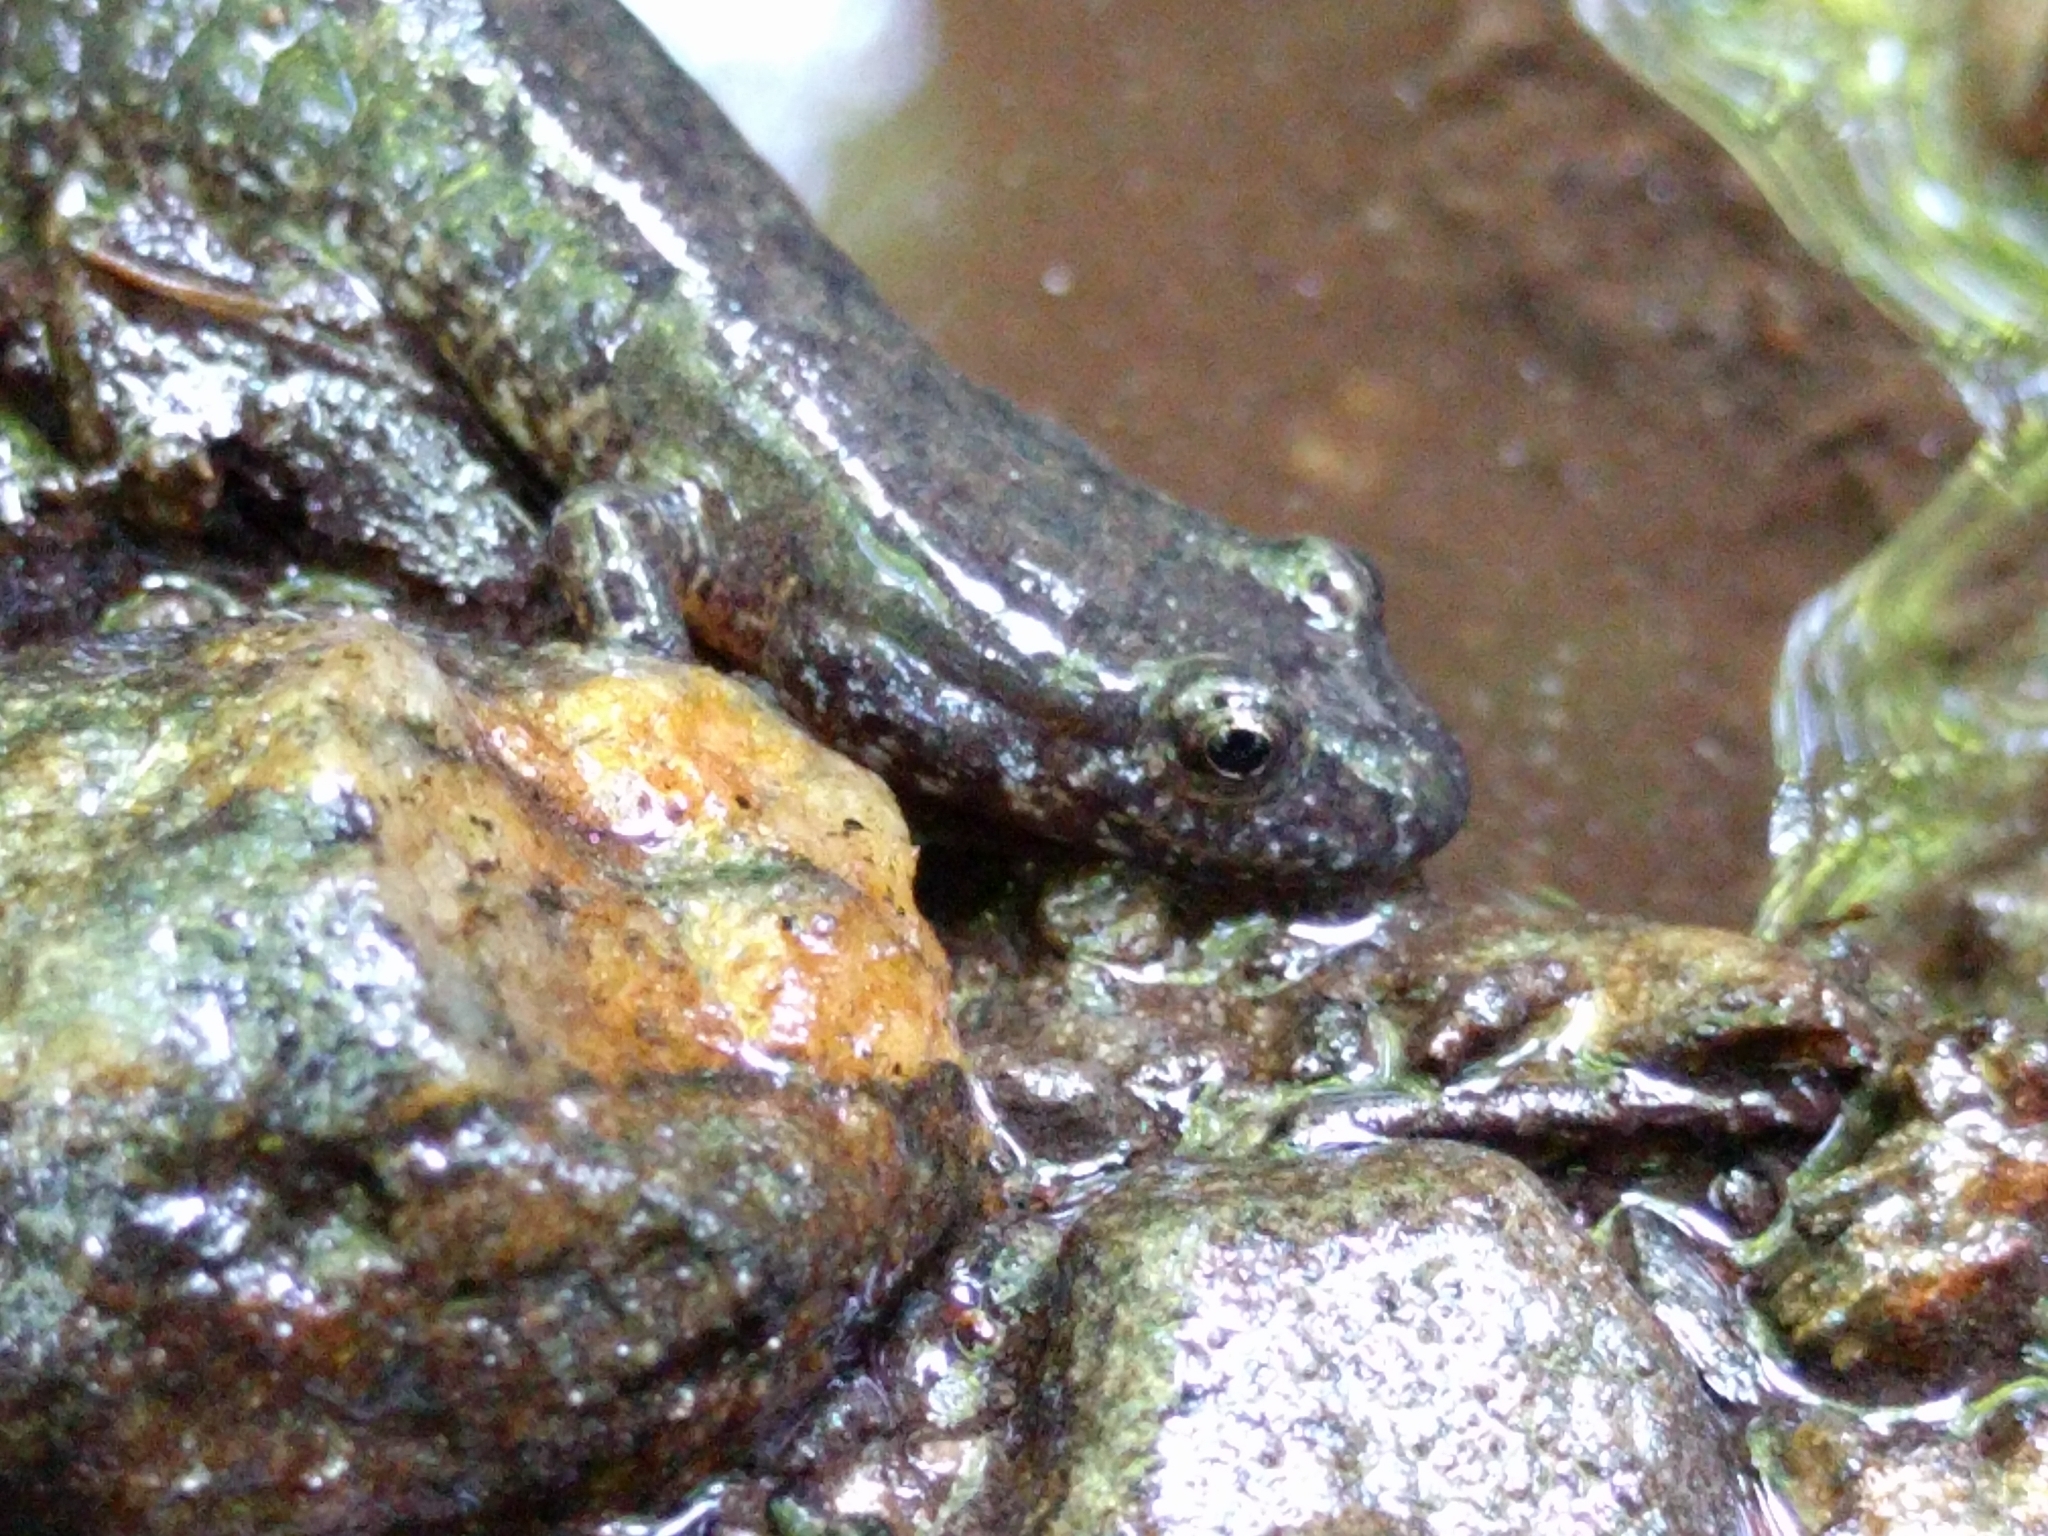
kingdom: Animalia
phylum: Chordata
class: Amphibia
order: Caudata
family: Plethodontidae
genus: Desmognathus
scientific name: Desmognathus fuscus
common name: Northern dusky salamander
